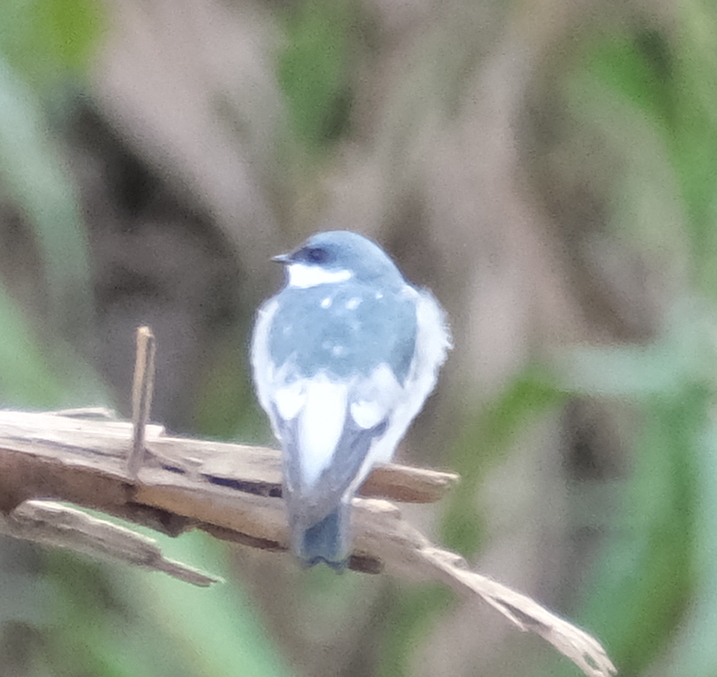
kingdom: Animalia
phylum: Chordata
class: Aves
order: Passeriformes
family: Hirundinidae
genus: Tachycineta
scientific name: Tachycineta albiventer
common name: White-winged swallow
